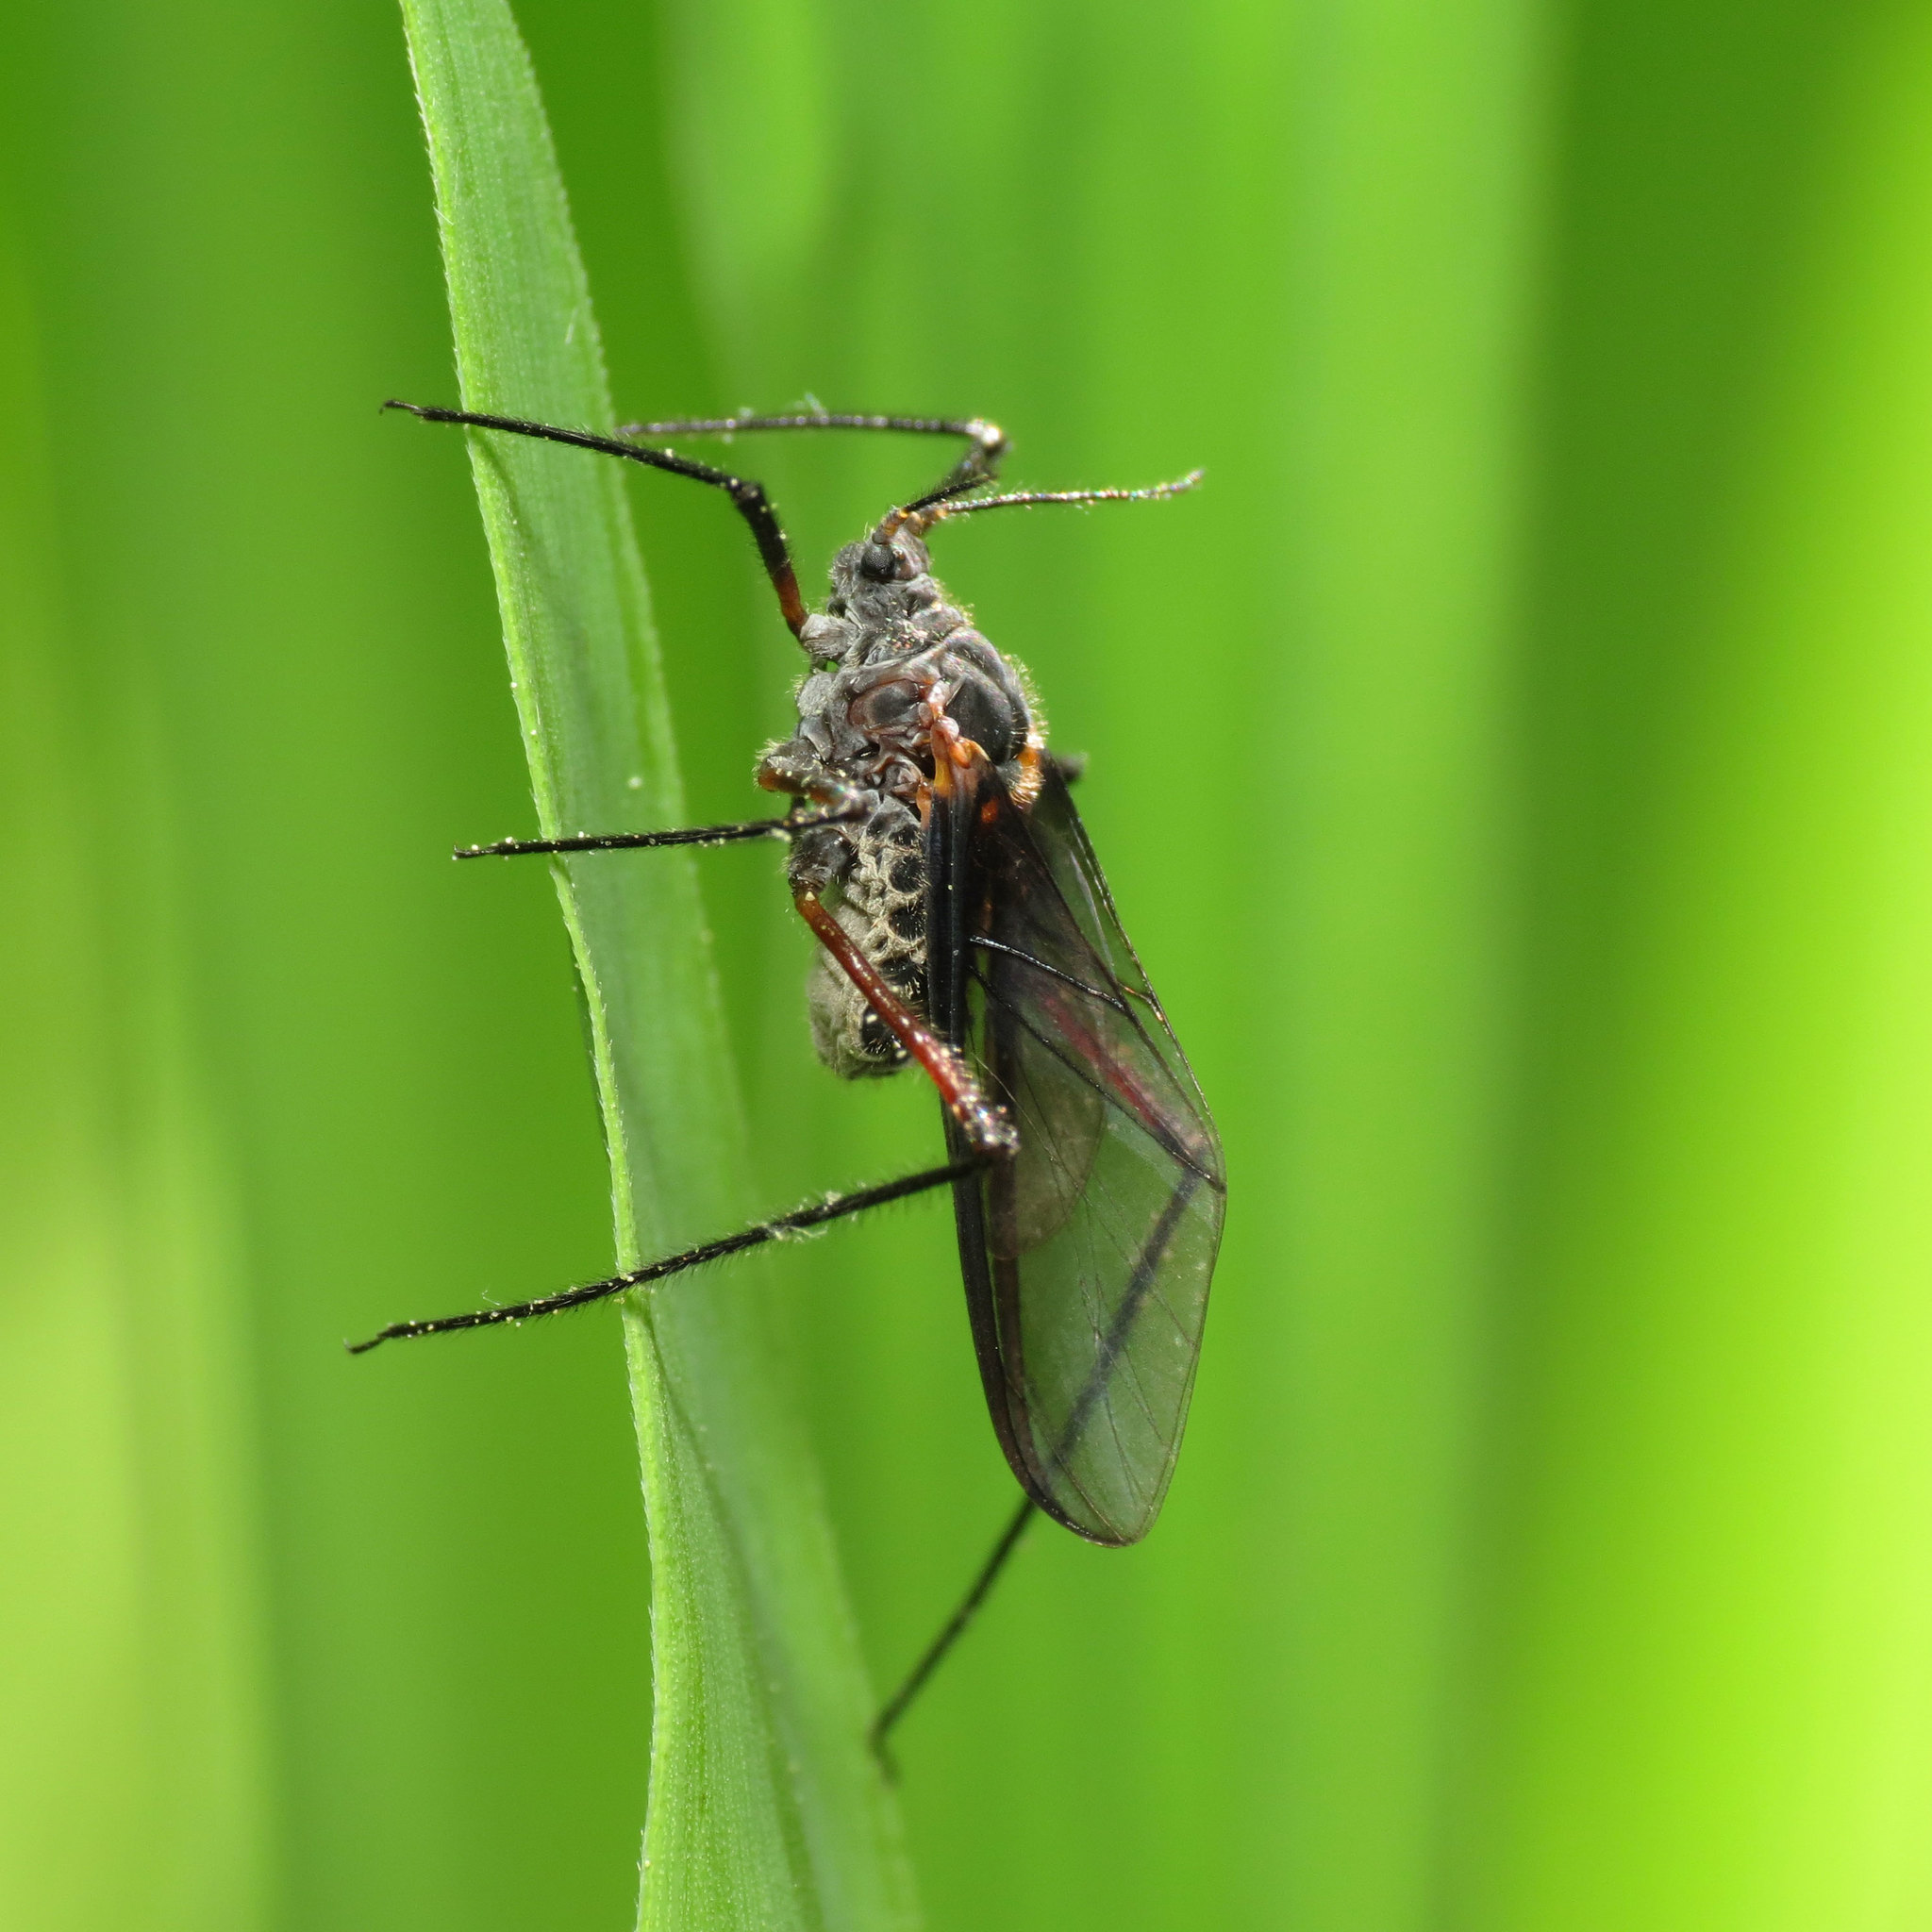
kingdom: Animalia
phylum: Arthropoda
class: Insecta
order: Hemiptera
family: Aphididae
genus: Longistigma
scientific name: Longistigma caryae
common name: Giant bark aphid
